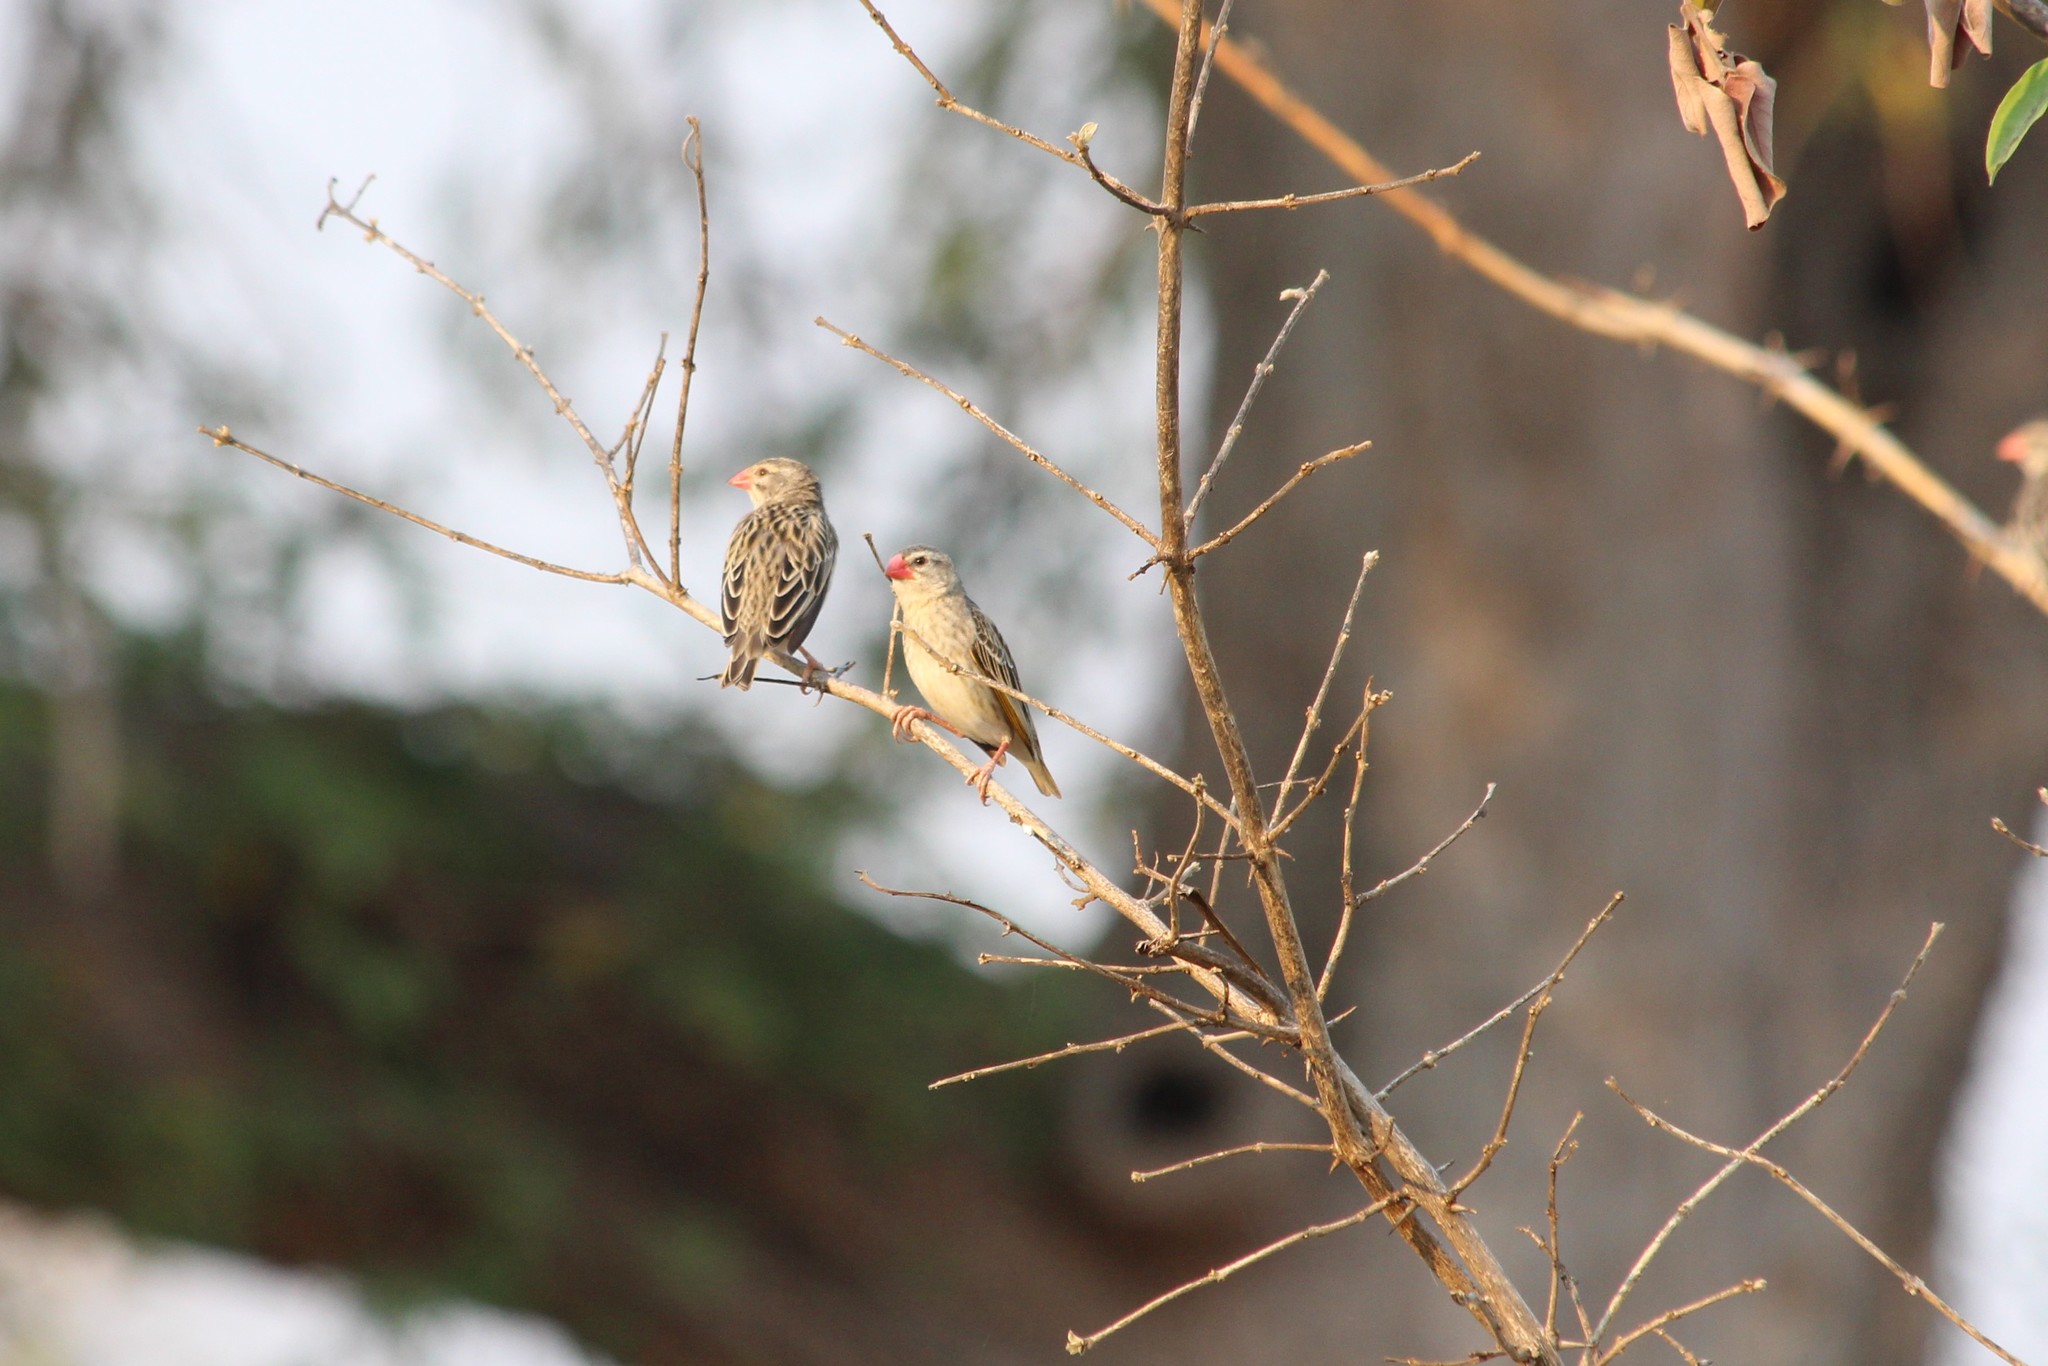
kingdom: Animalia
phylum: Chordata
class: Aves
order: Passeriformes
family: Ploceidae
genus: Quelea
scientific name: Quelea quelea
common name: Red-billed quelea
